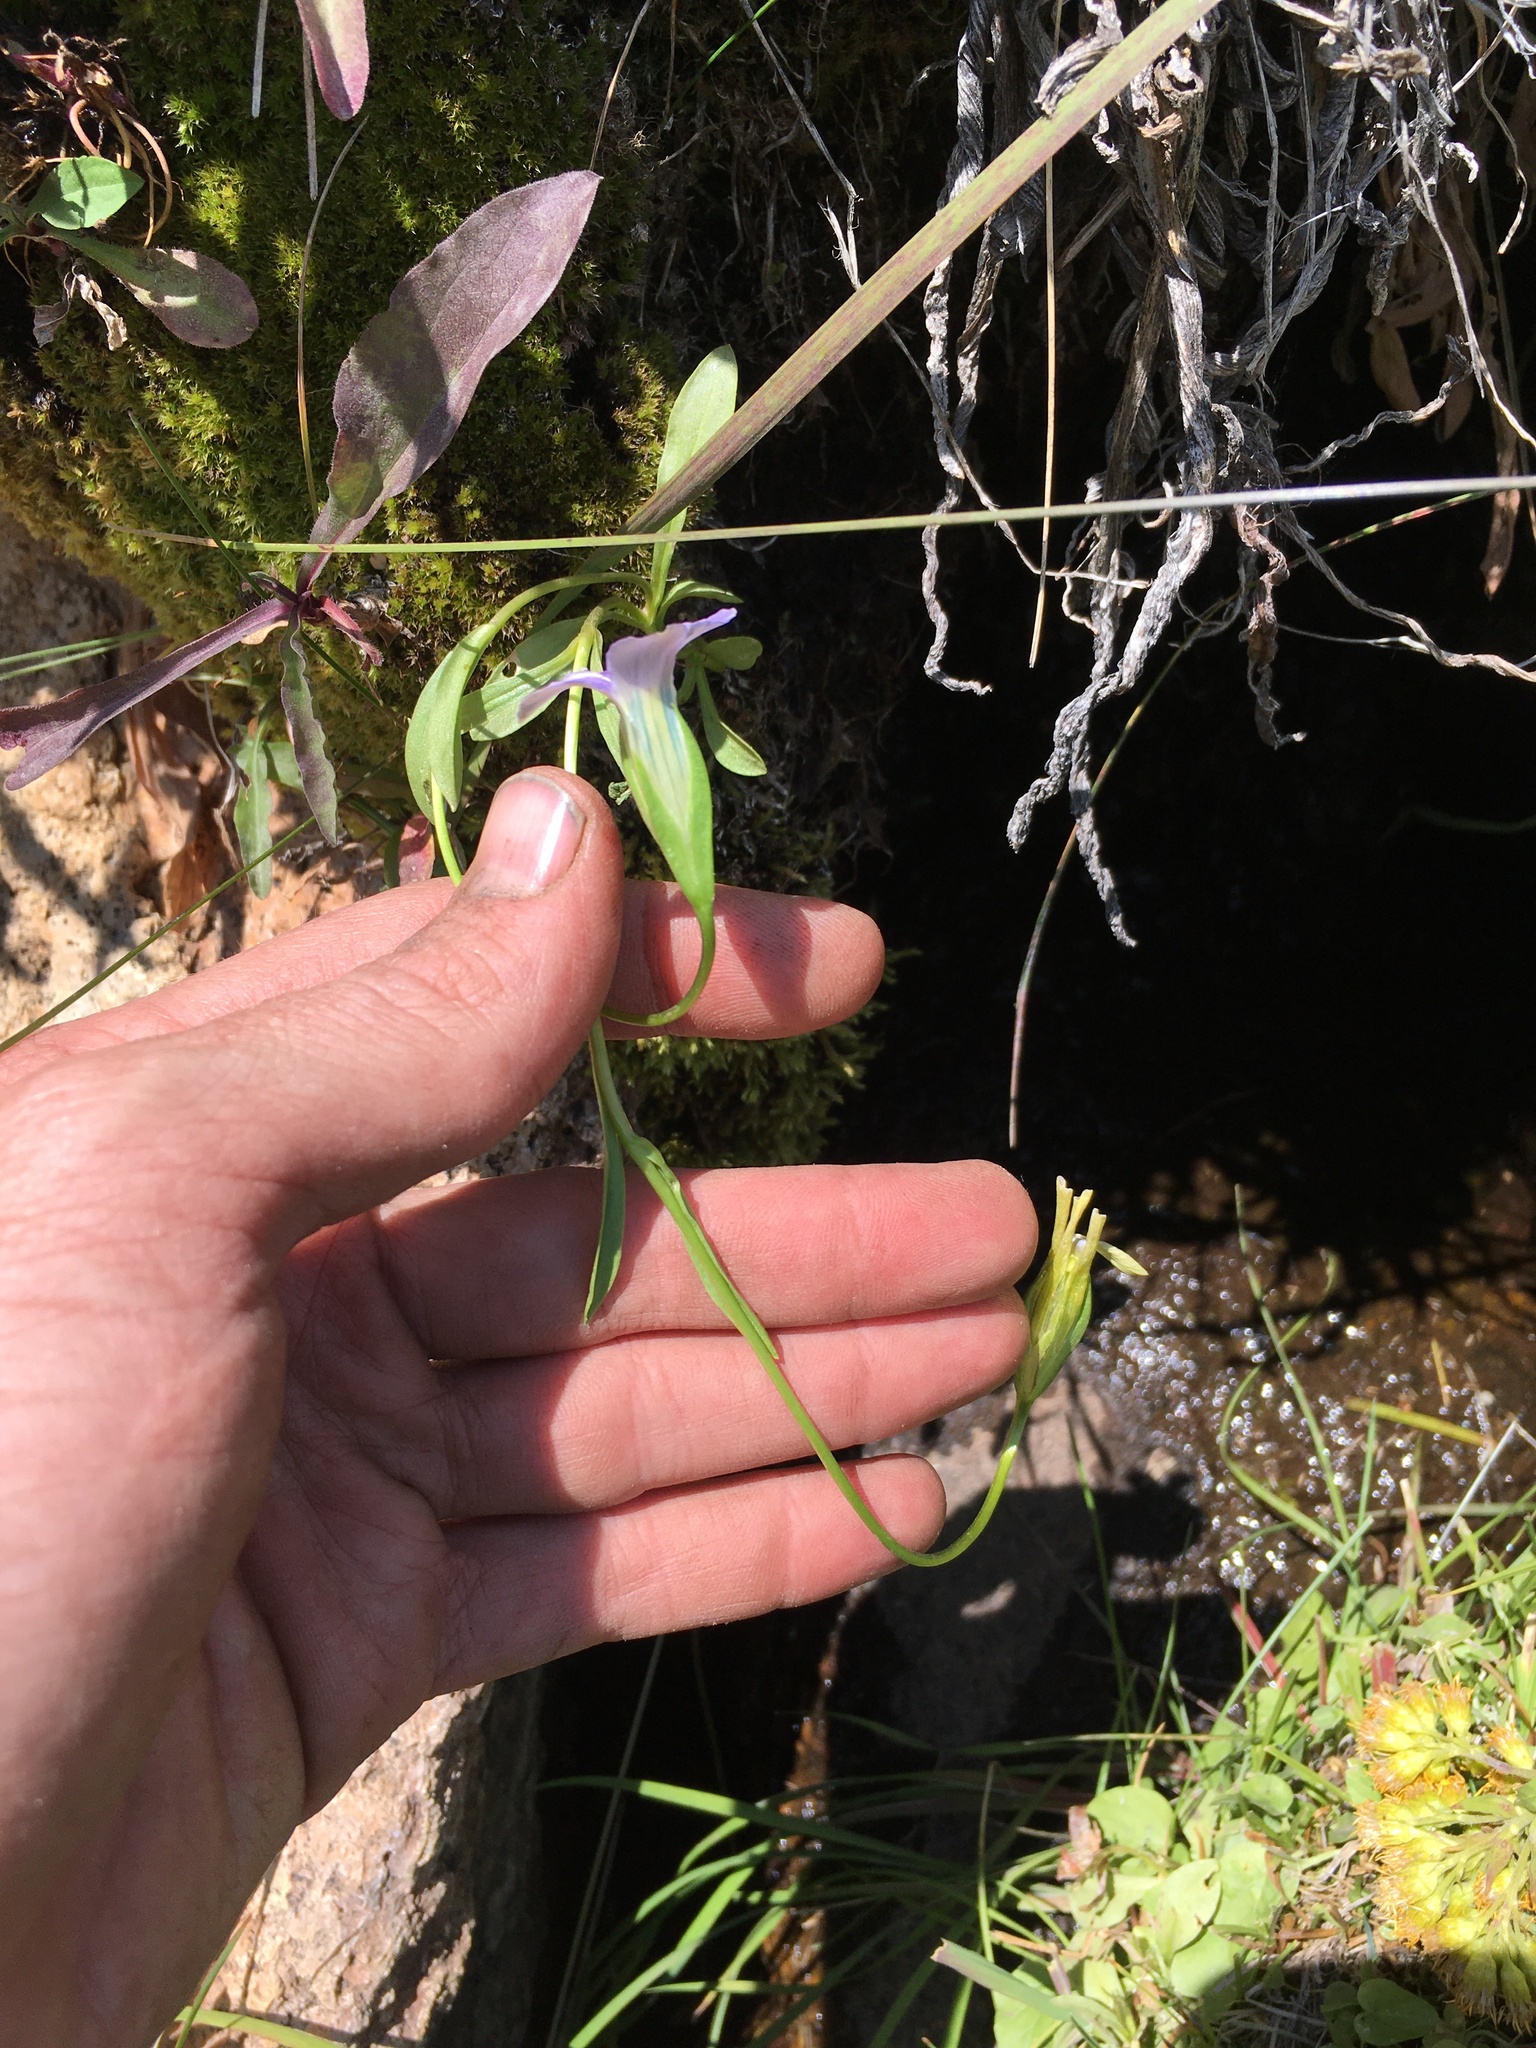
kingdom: Plantae
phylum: Tracheophyta
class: Magnoliopsida
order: Gentianales
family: Gentianaceae
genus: Gentianopsis
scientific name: Gentianopsis holopetala
